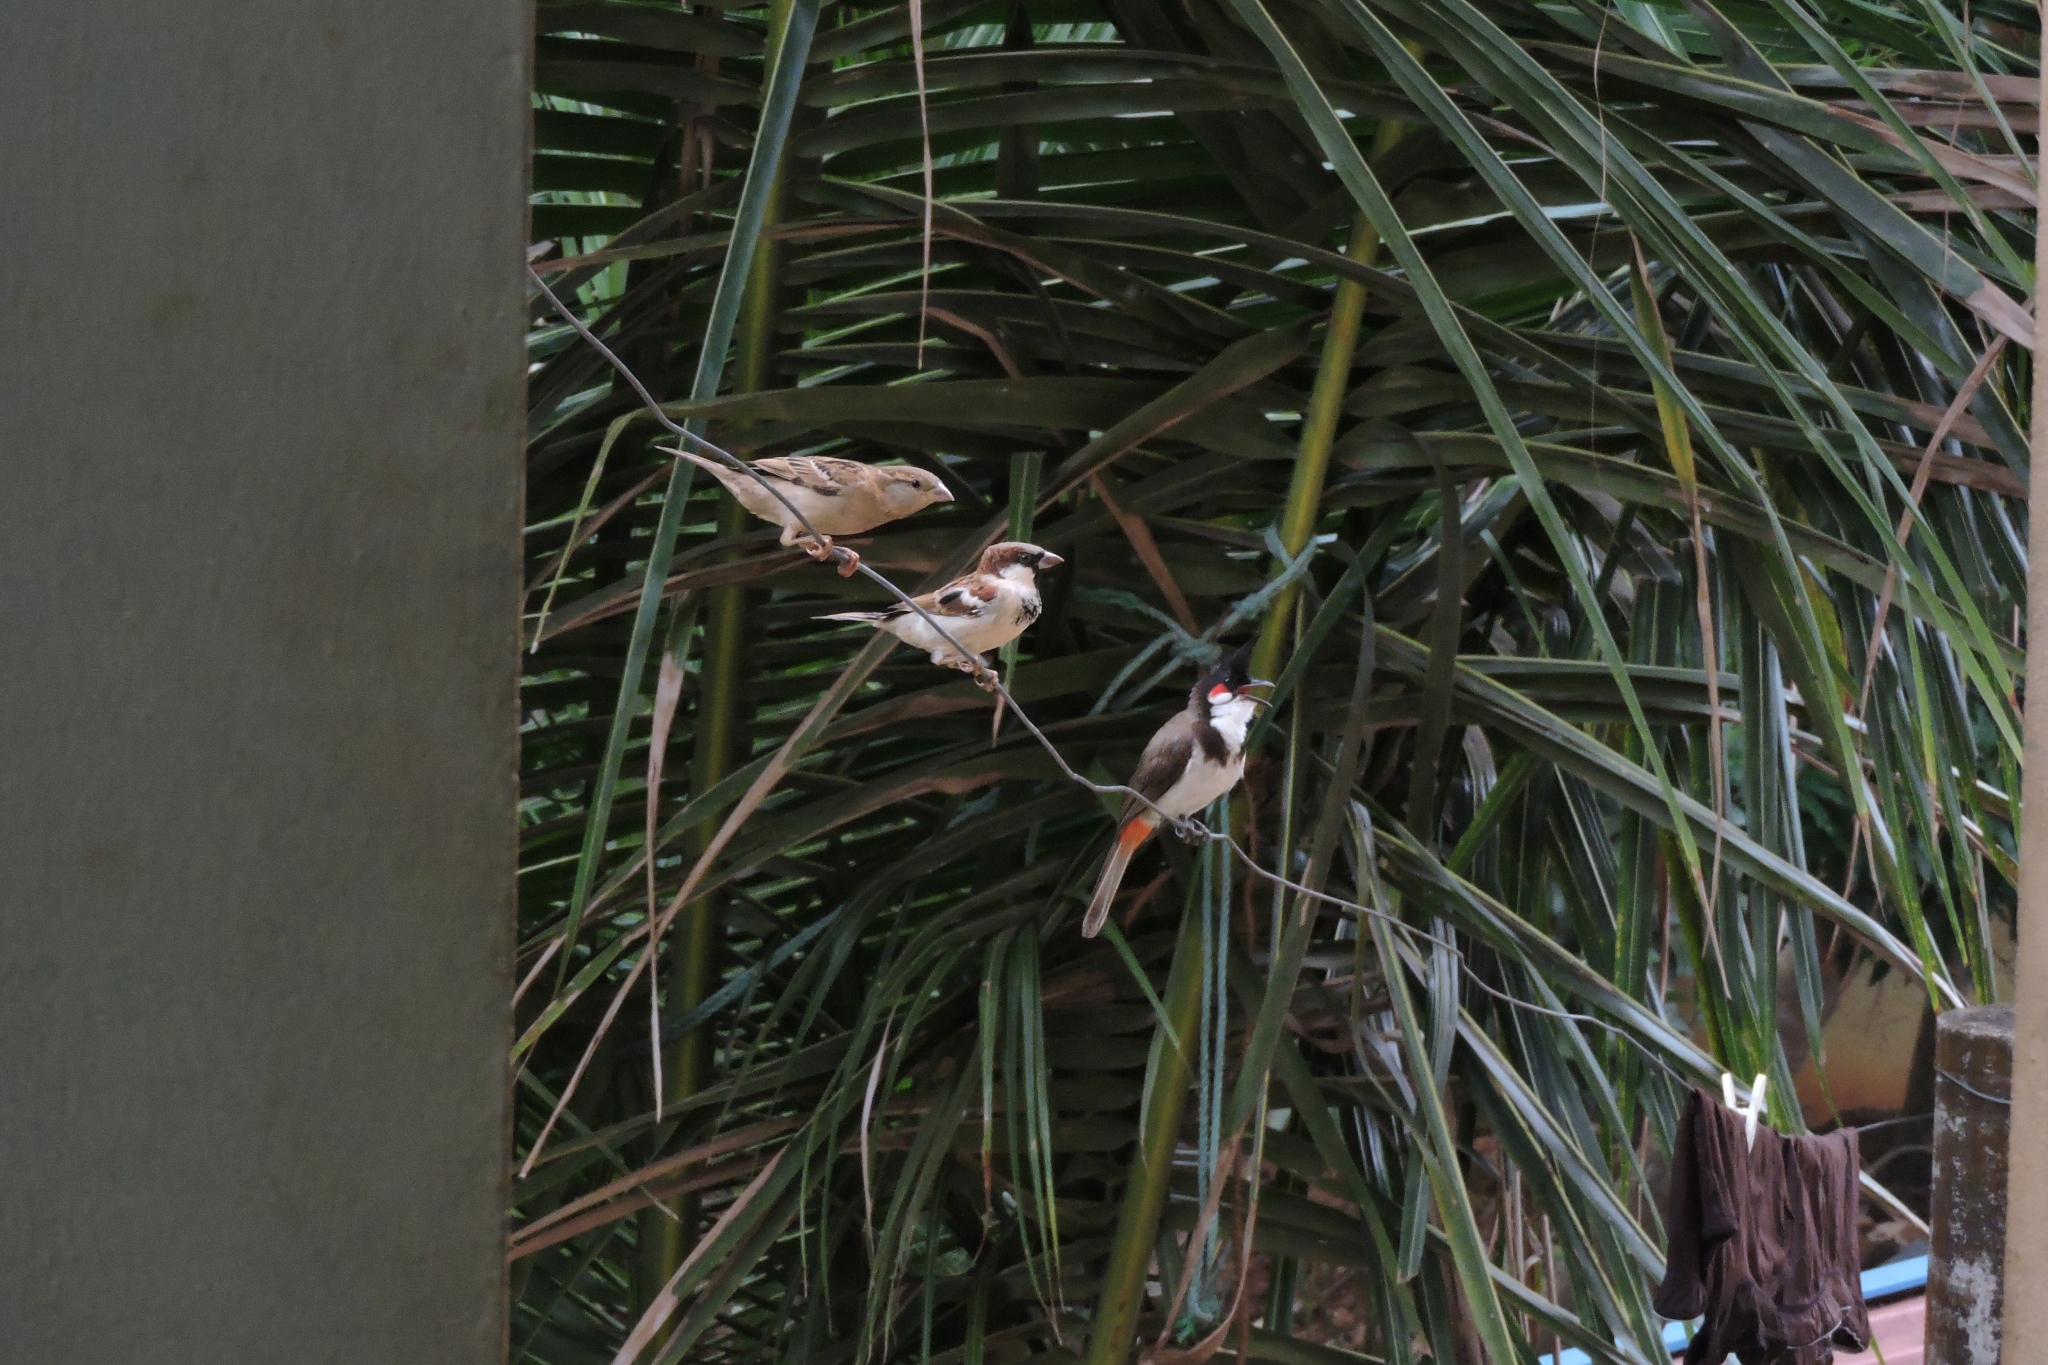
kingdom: Animalia
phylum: Chordata
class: Aves
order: Passeriformes
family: Passeridae
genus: Passer
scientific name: Passer domesticus
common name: House sparrow
